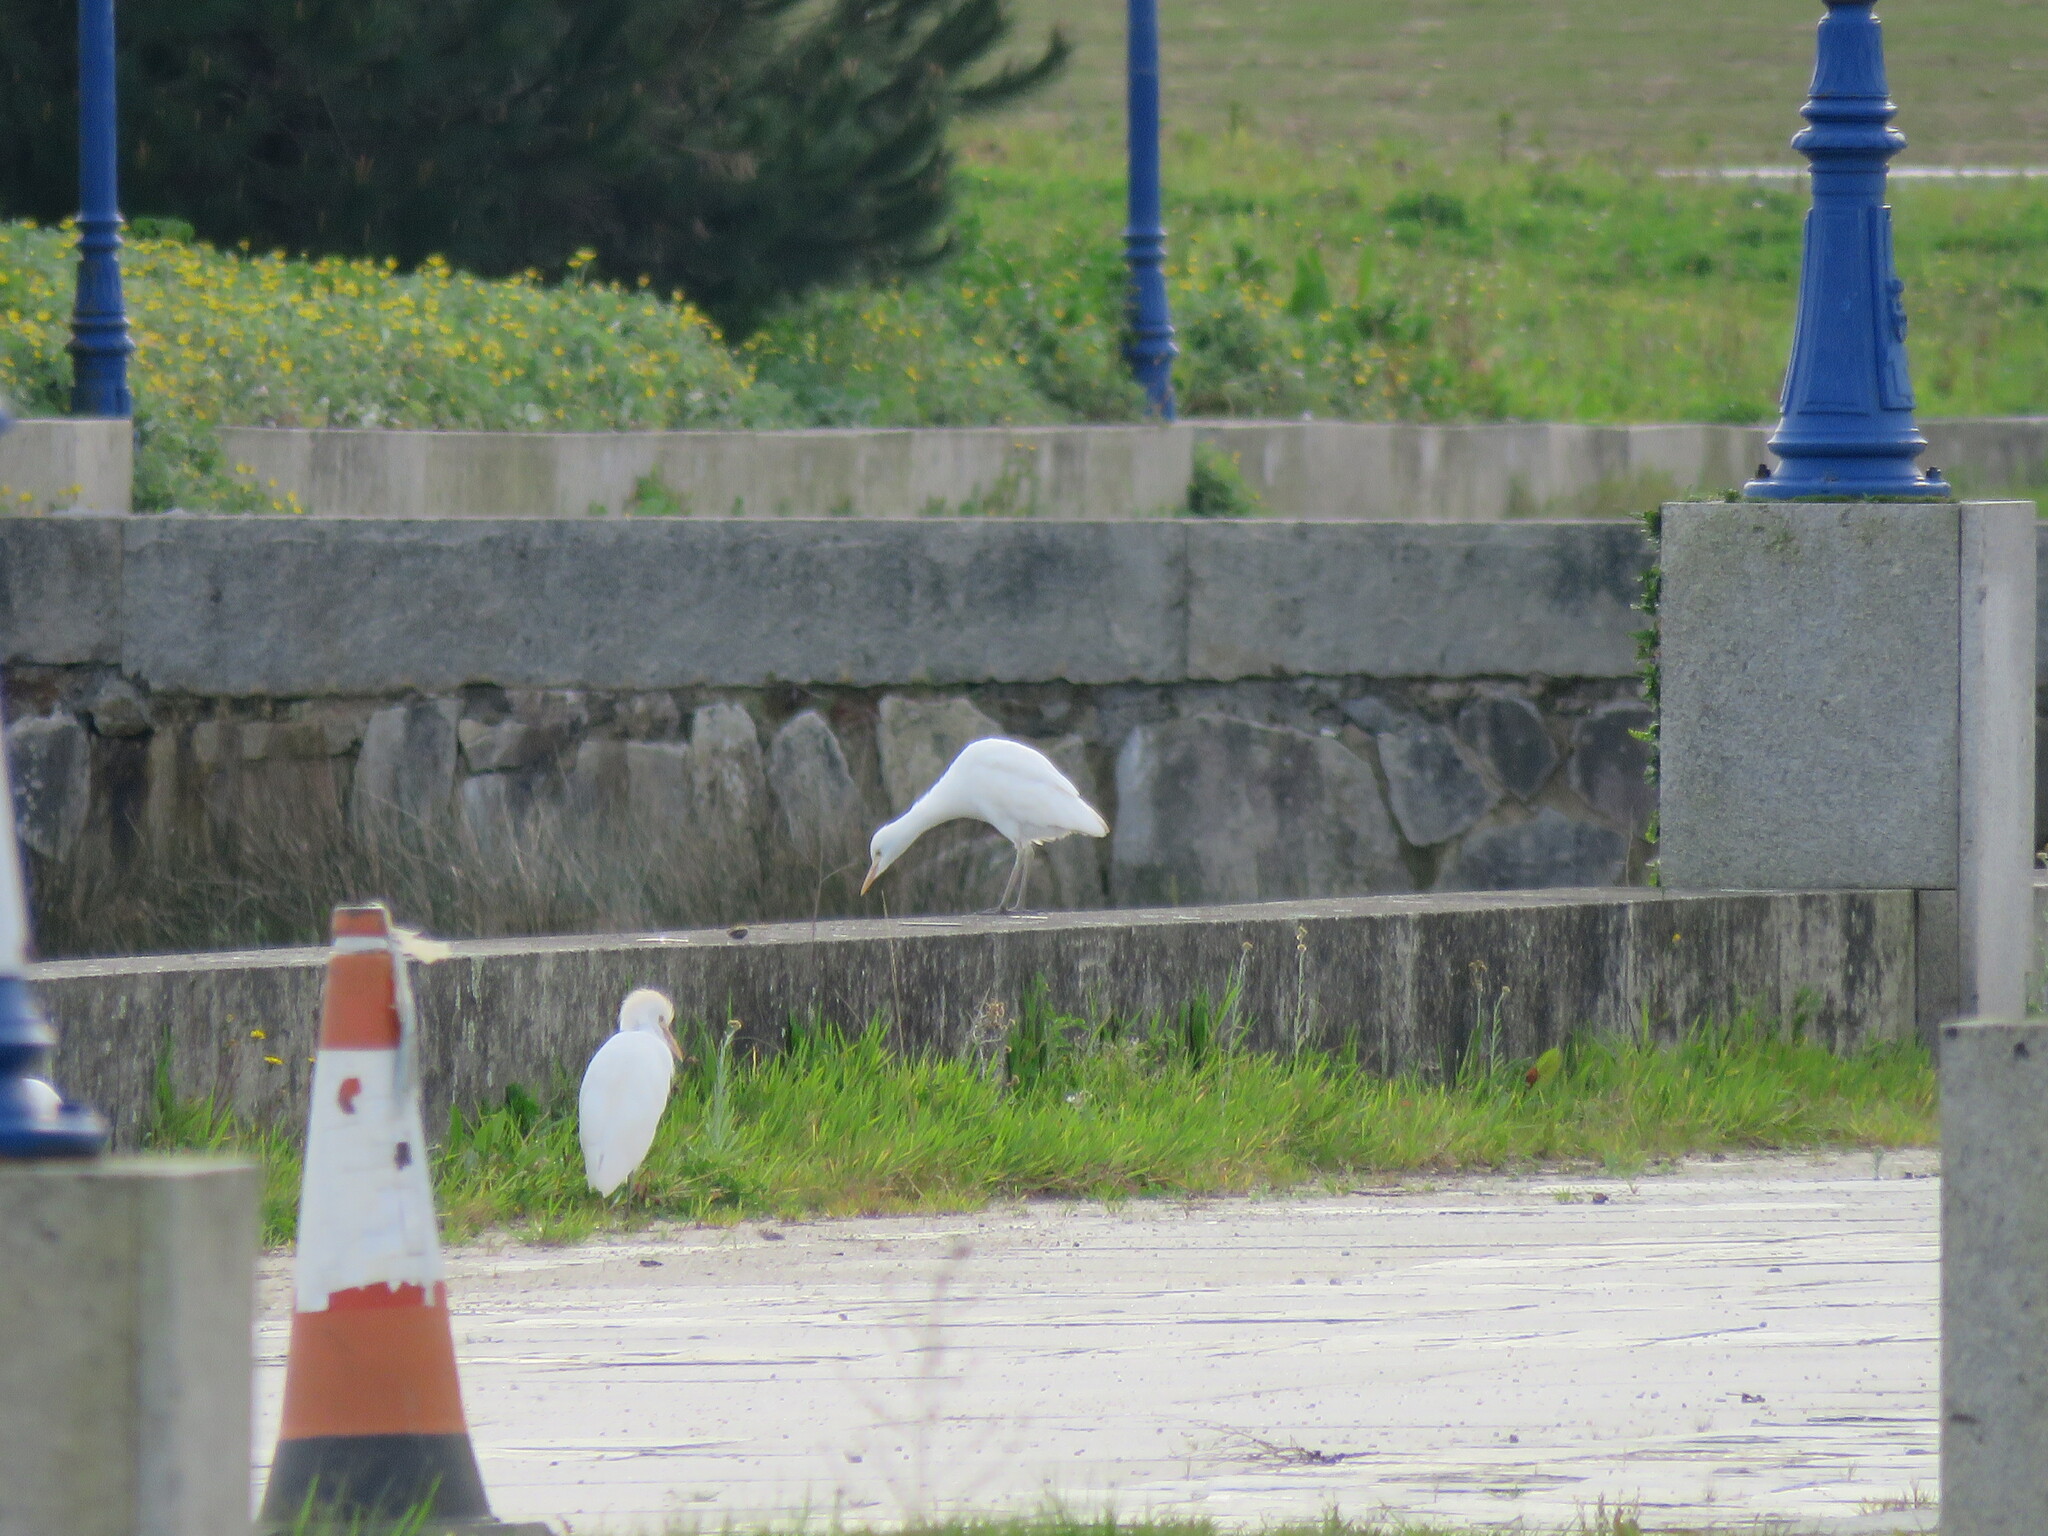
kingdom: Animalia
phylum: Chordata
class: Aves
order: Pelecaniformes
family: Ardeidae
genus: Bubulcus
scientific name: Bubulcus ibis
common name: Cattle egret
